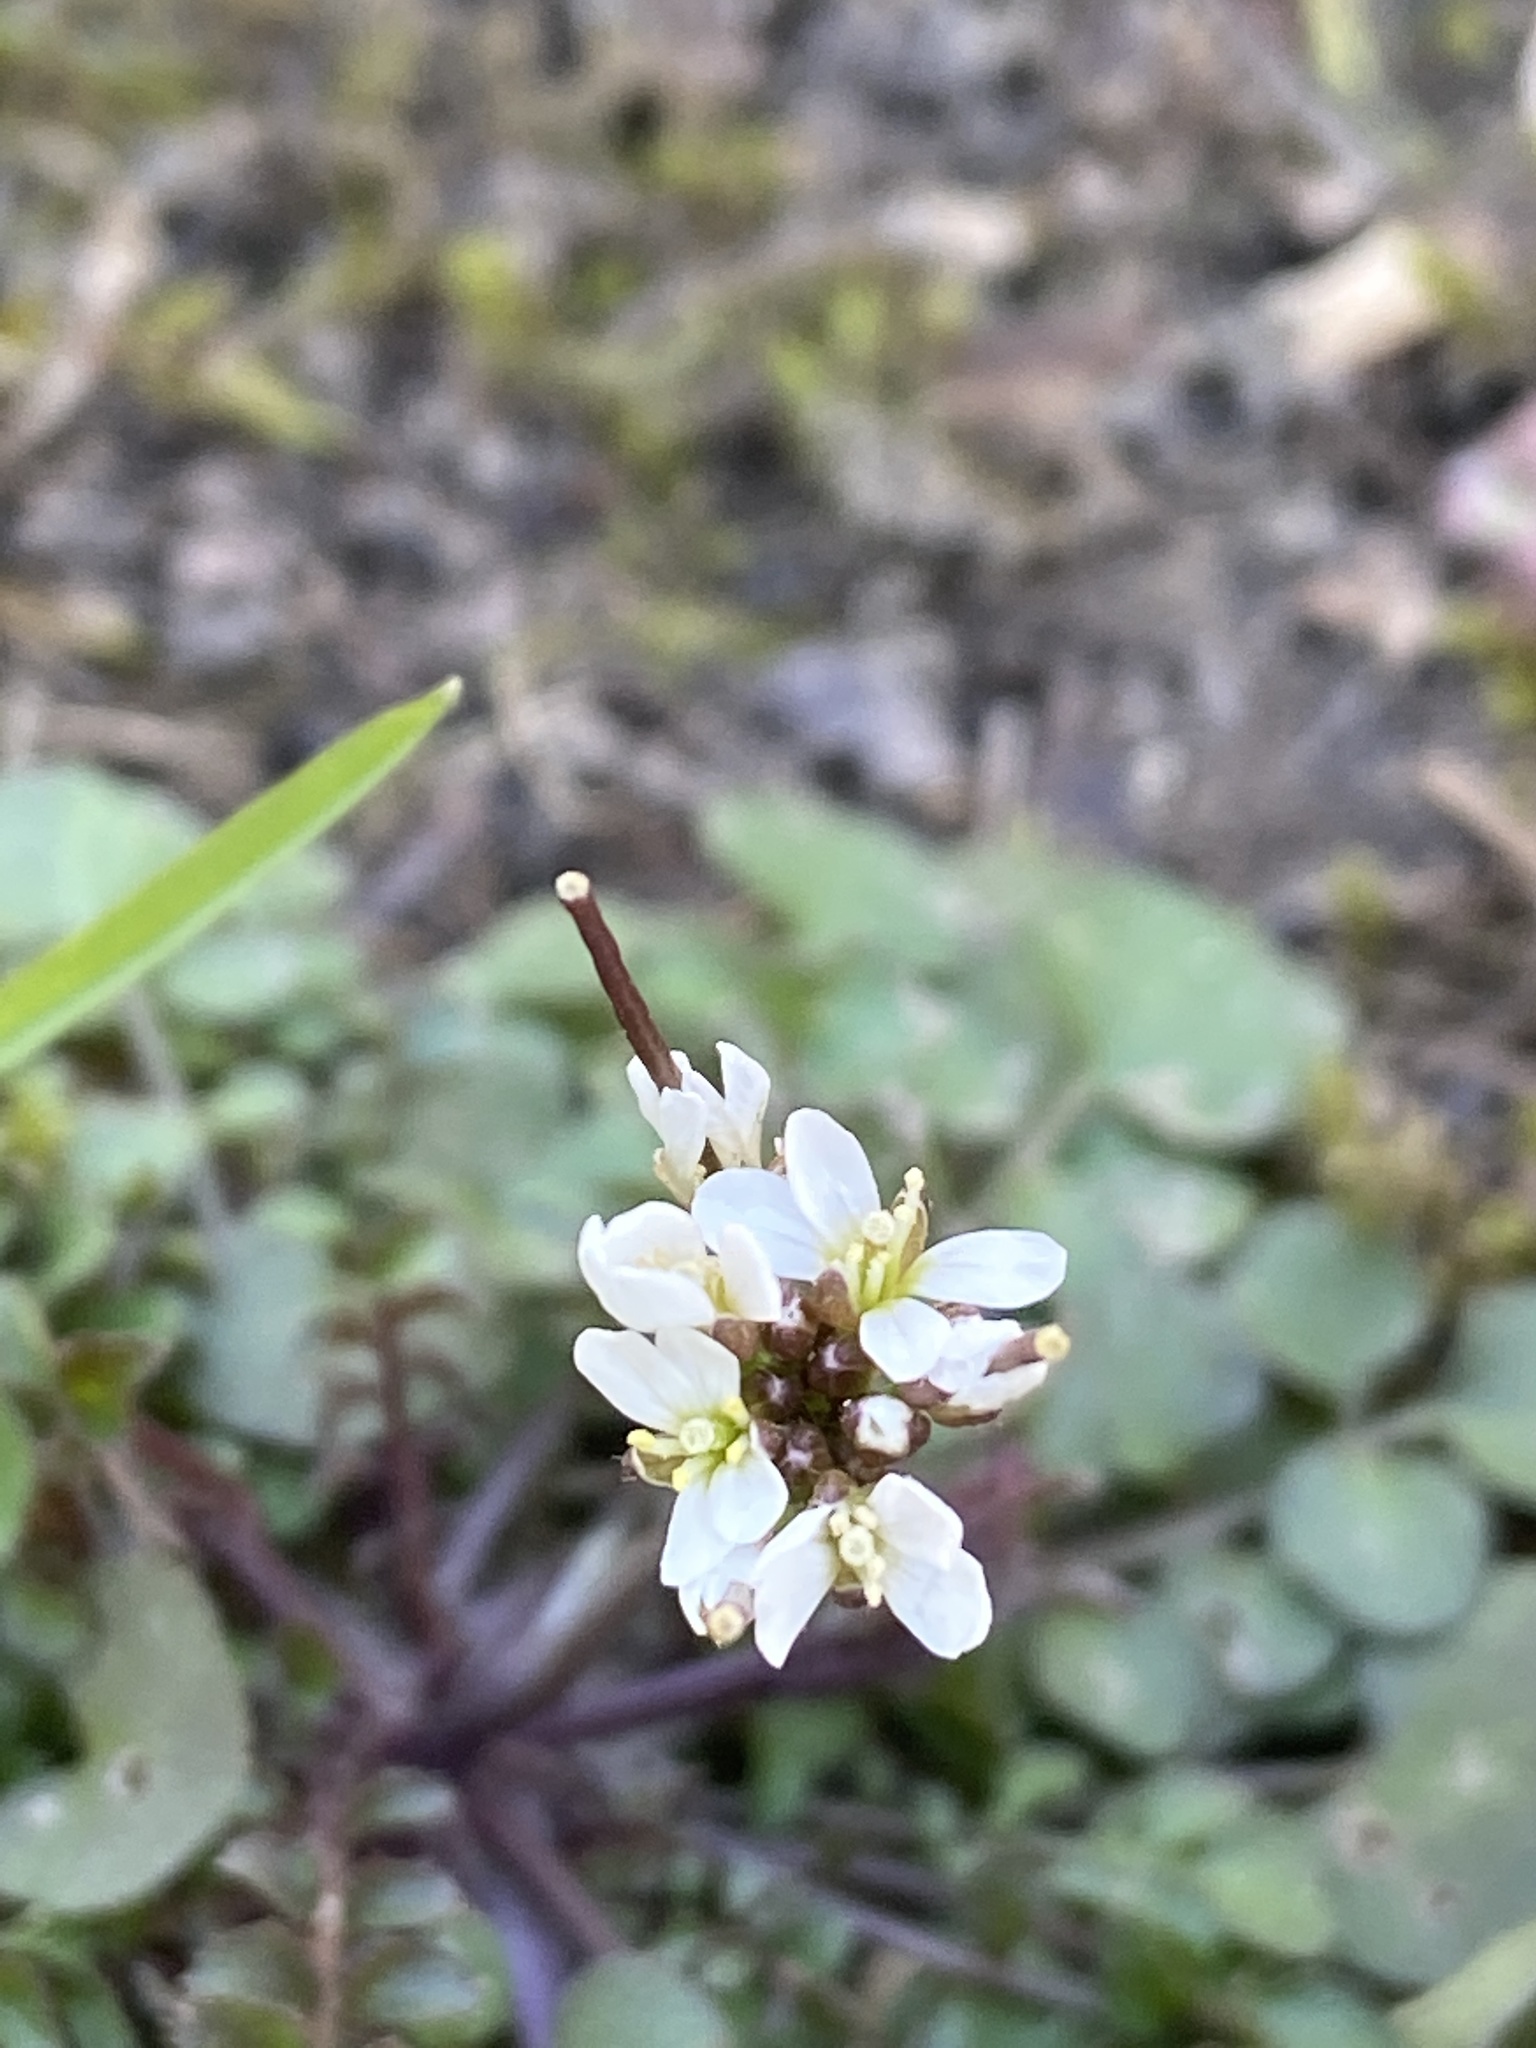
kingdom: Plantae
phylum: Tracheophyta
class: Magnoliopsida
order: Brassicales
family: Brassicaceae
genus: Cardamine
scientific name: Cardamine hirsuta
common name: Hairy bittercress
